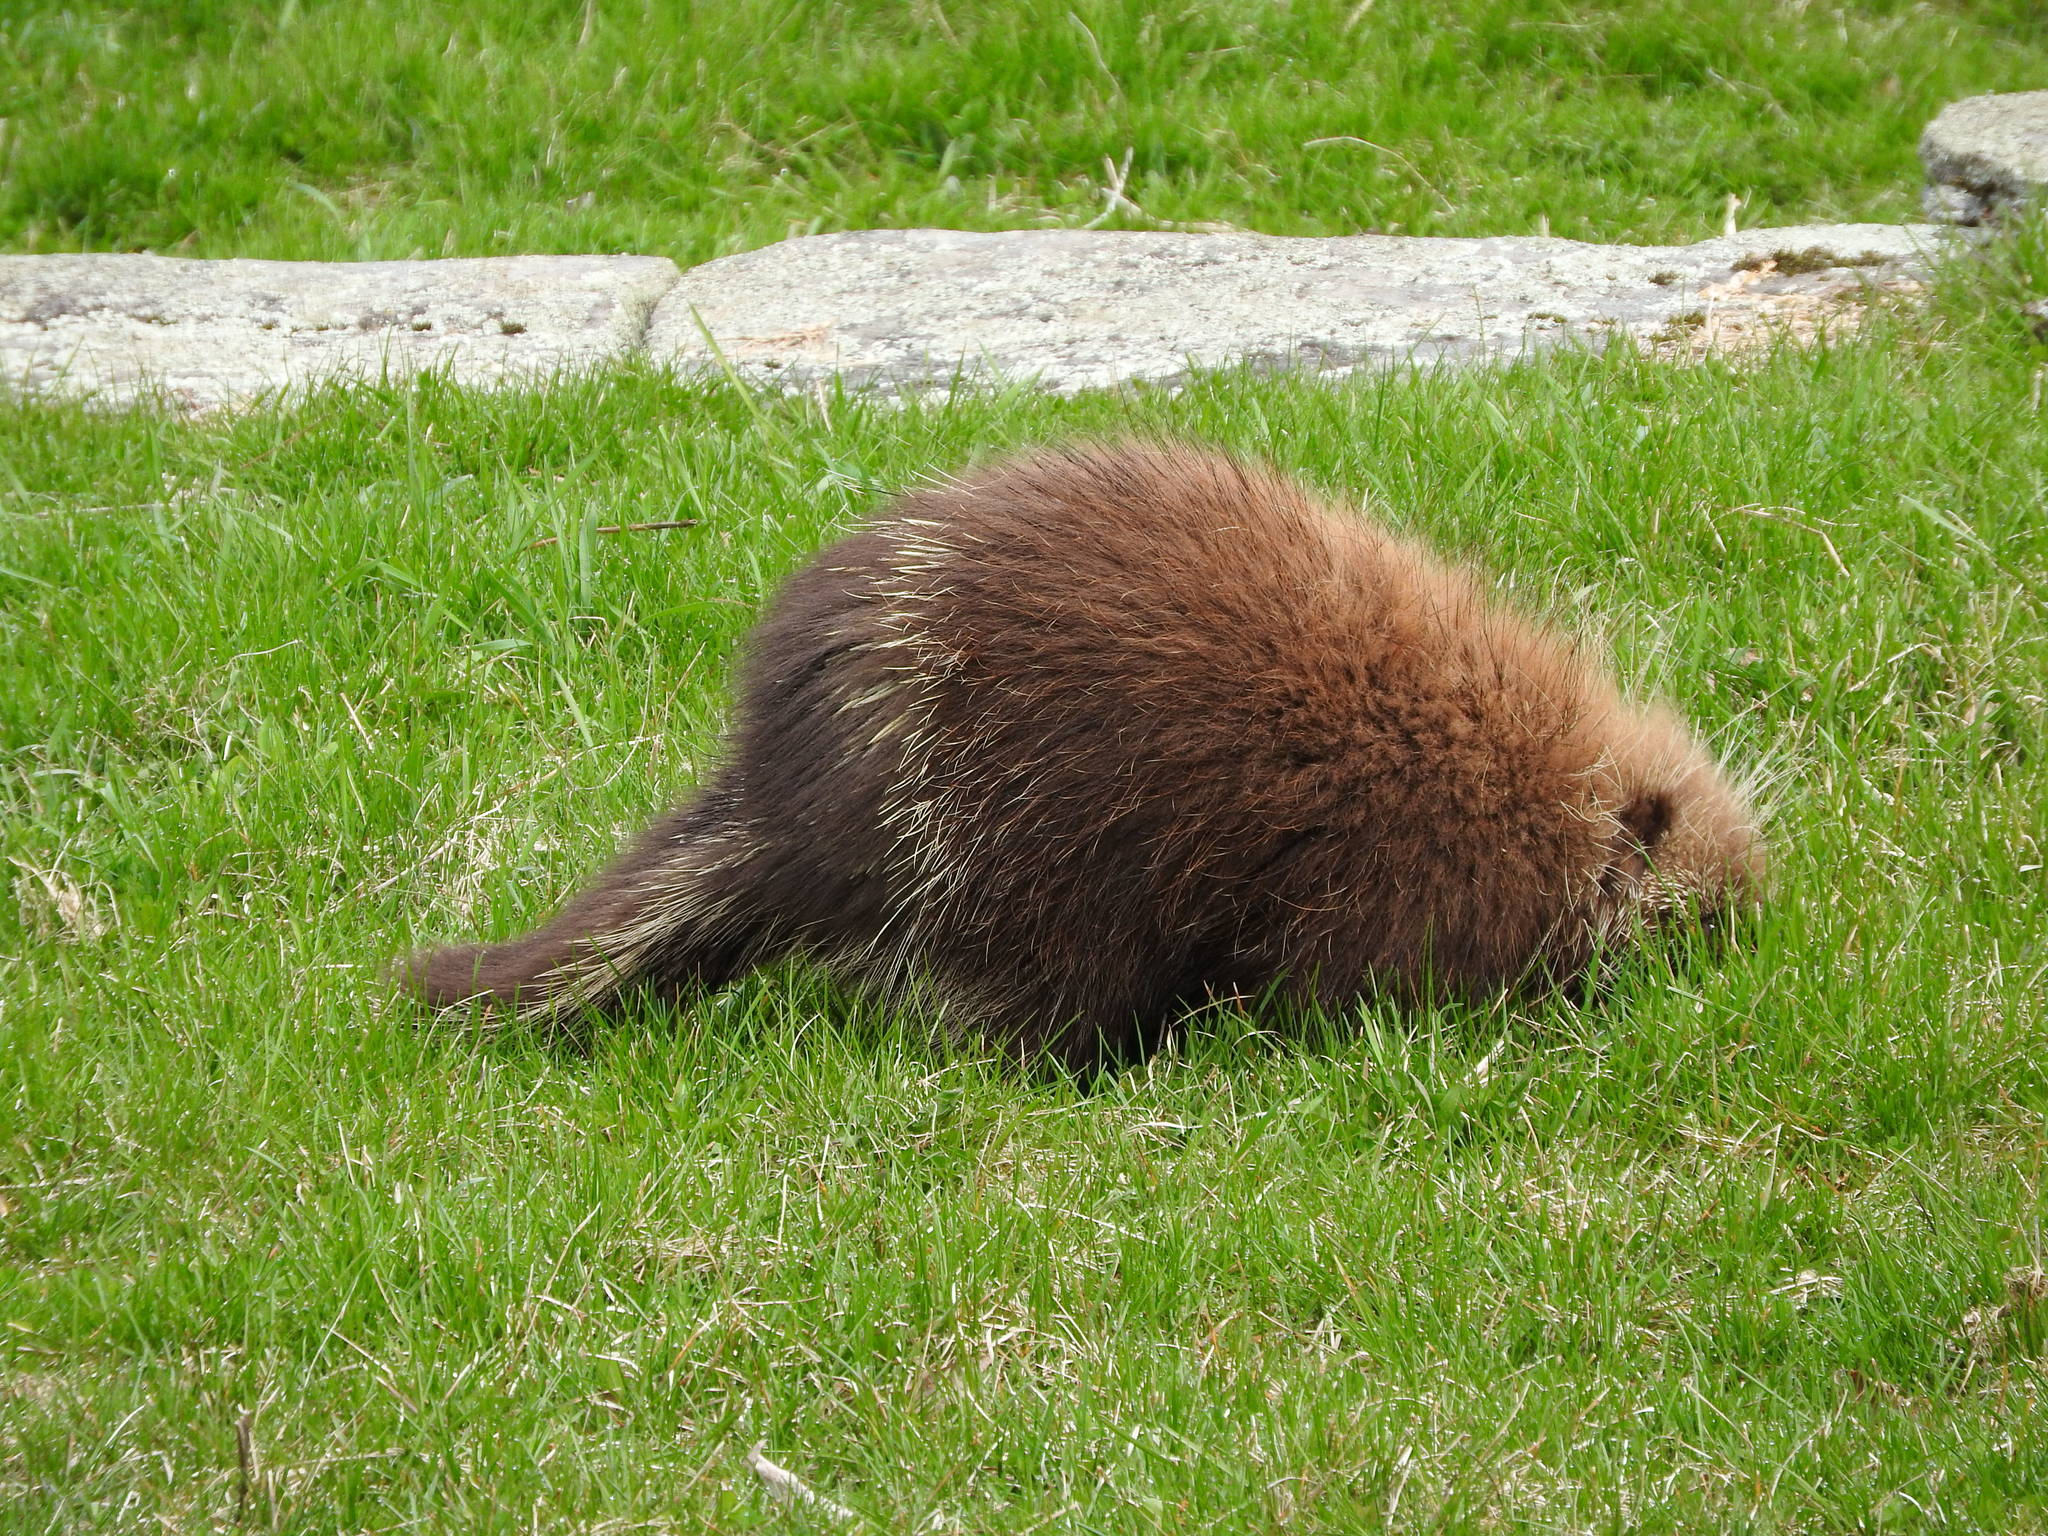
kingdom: Animalia
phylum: Chordata
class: Mammalia
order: Rodentia
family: Erethizontidae
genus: Erethizon
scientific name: Erethizon dorsatus
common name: North american porcupine
